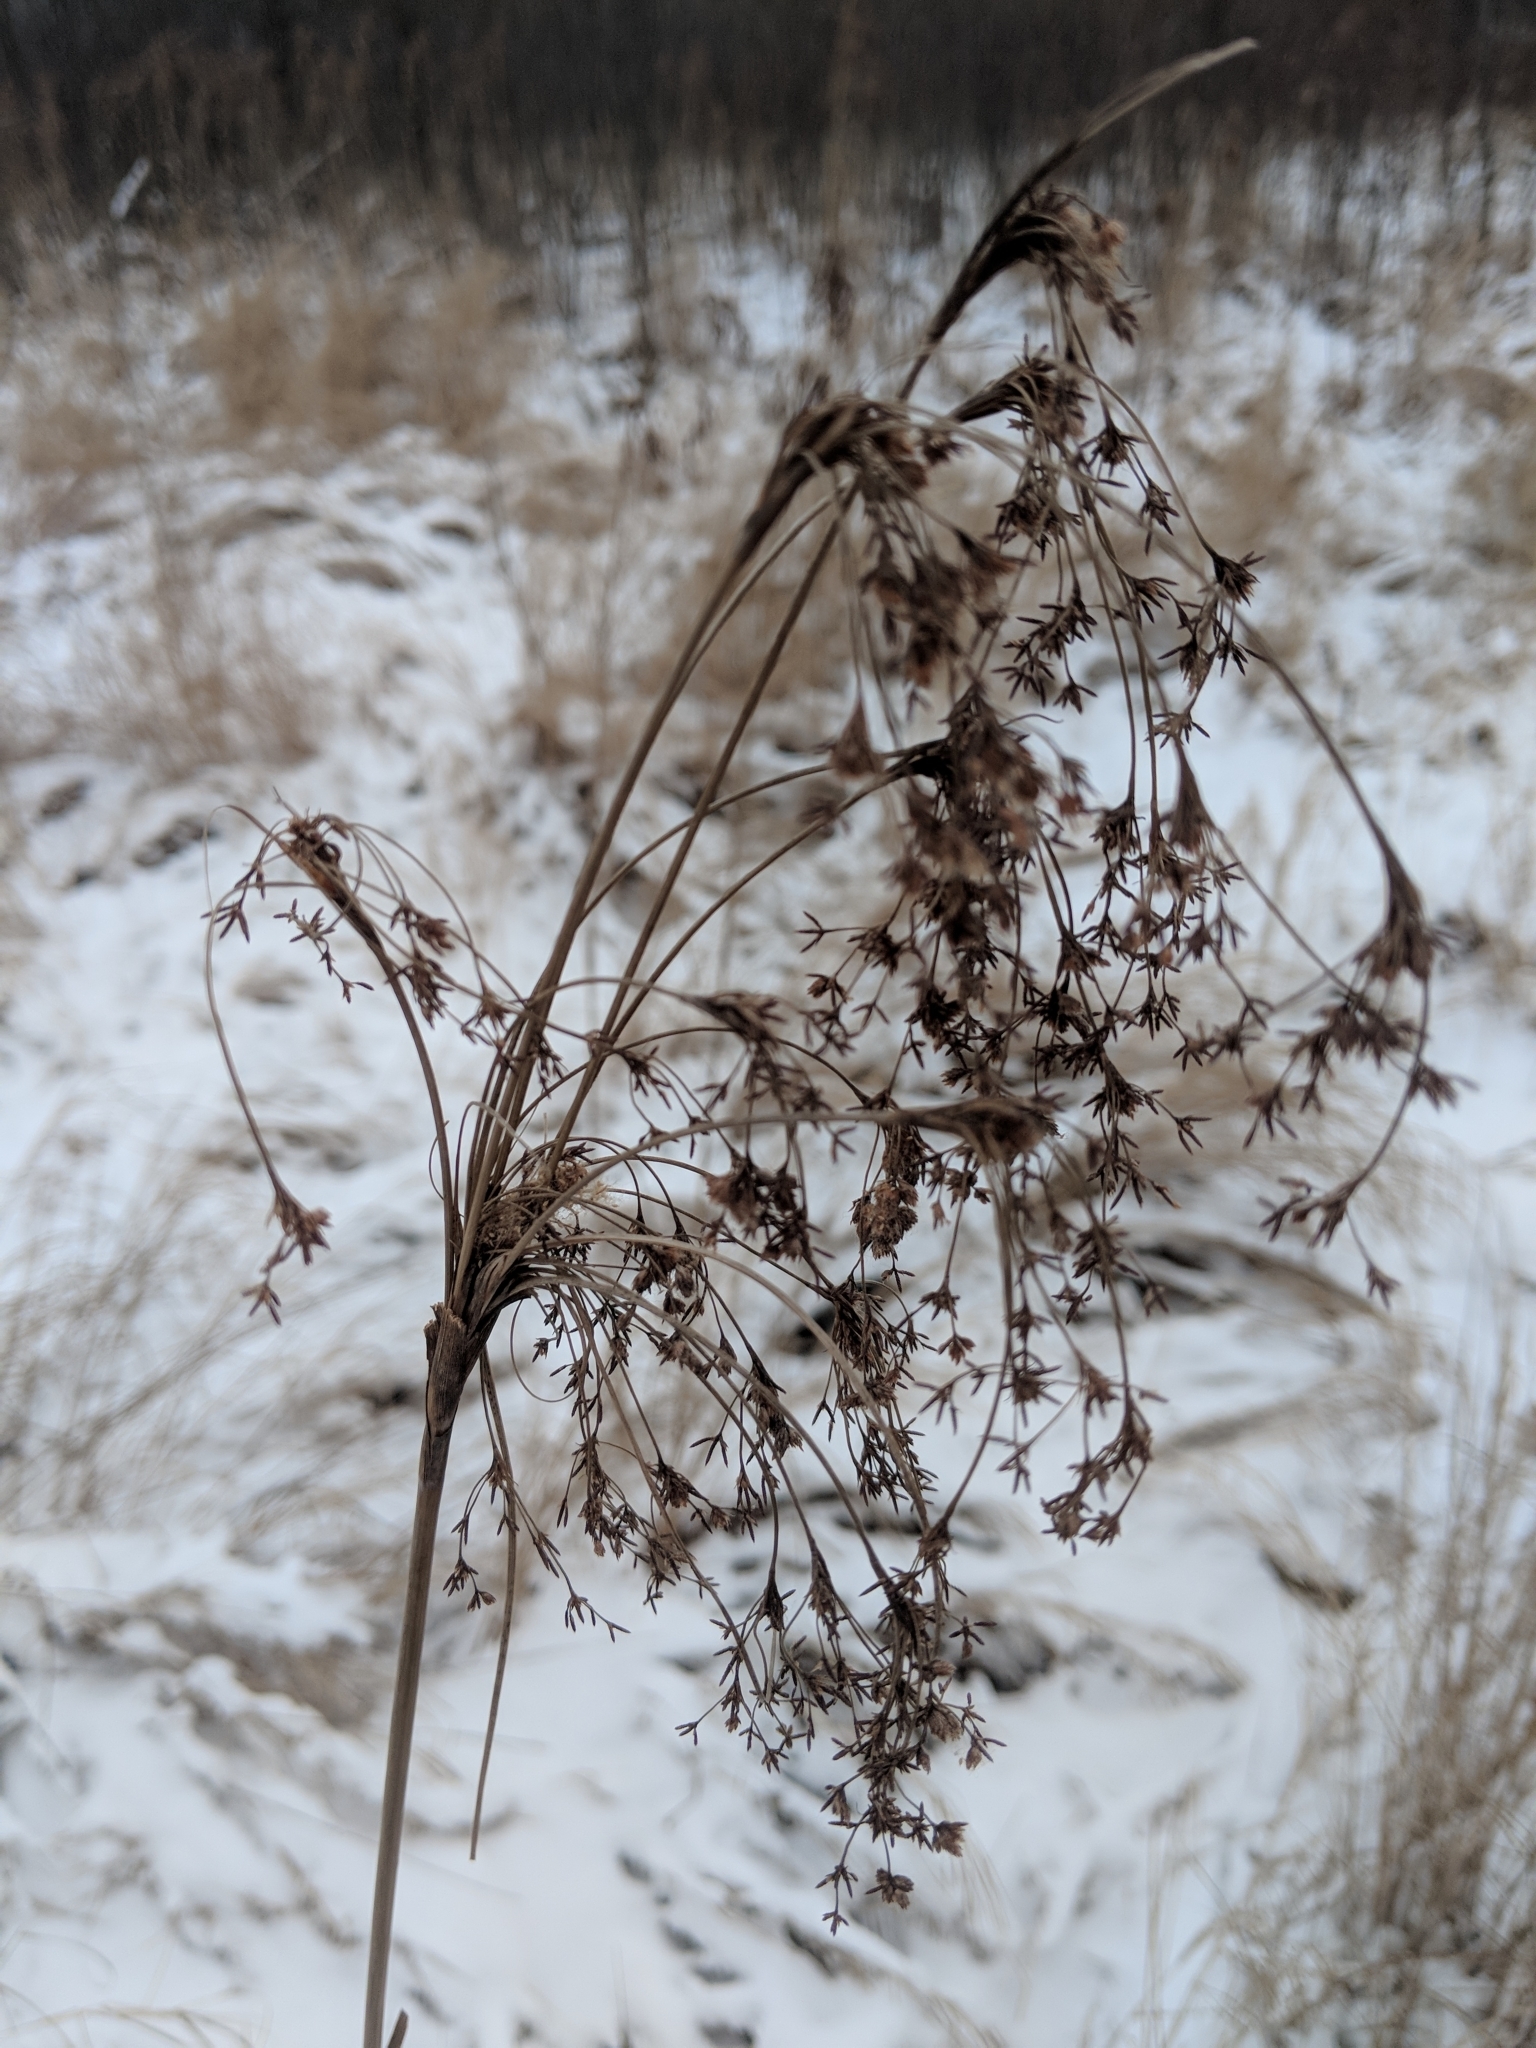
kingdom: Plantae
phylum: Tracheophyta
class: Liliopsida
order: Poales
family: Cyperaceae
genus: Scirpus
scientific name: Scirpus cyperinus
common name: Black-sheathed bulrush
